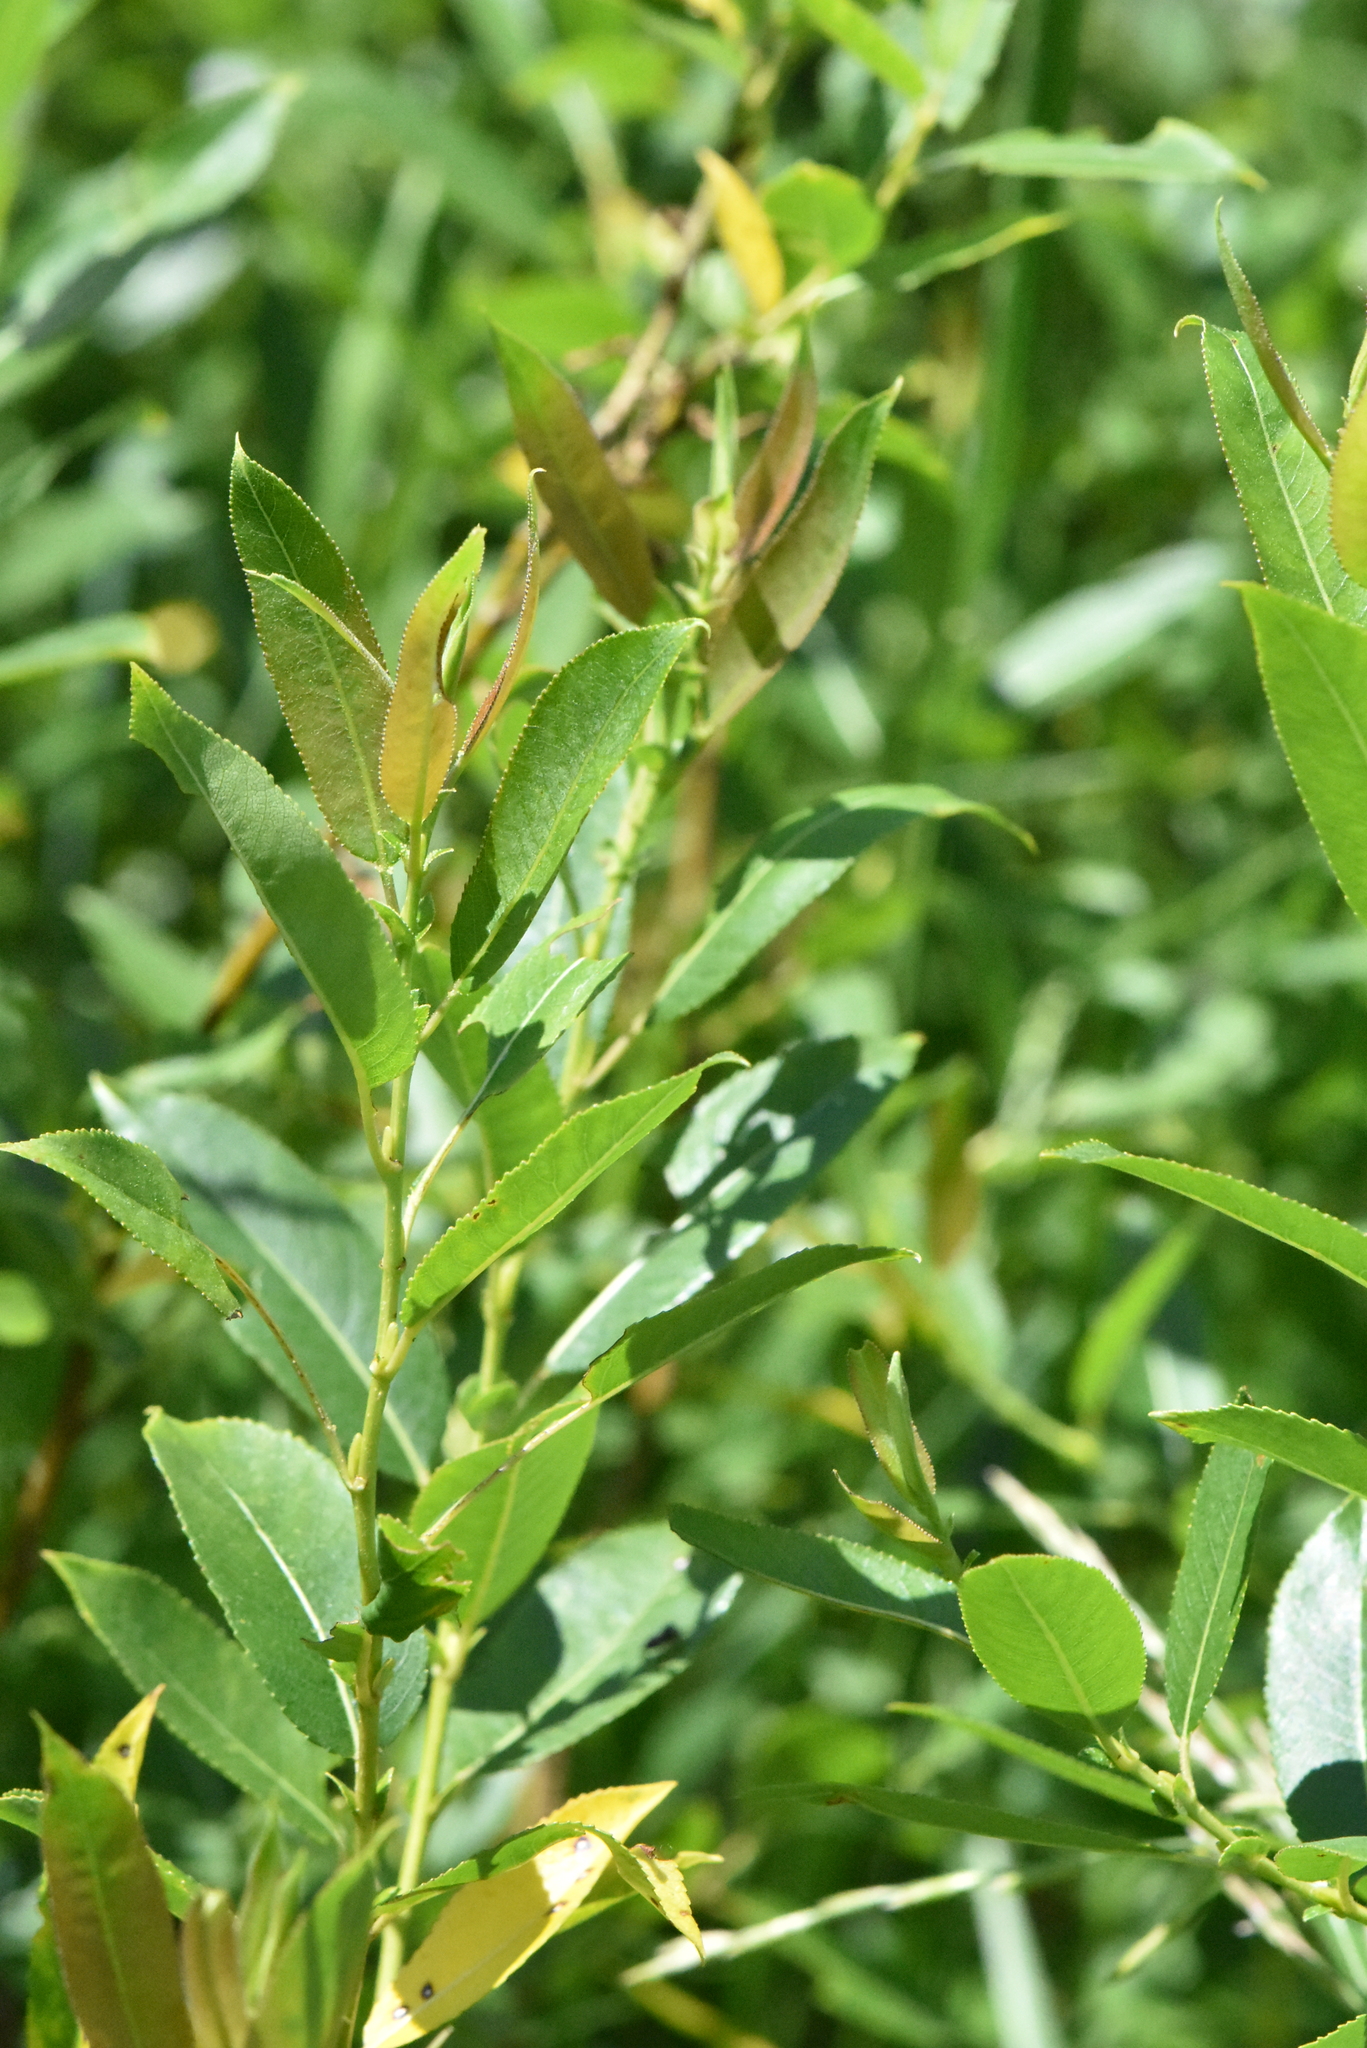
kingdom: Plantae
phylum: Tracheophyta
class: Magnoliopsida
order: Malpighiales
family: Salicaceae
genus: Salix
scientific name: Salix triandra
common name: Almond willow
